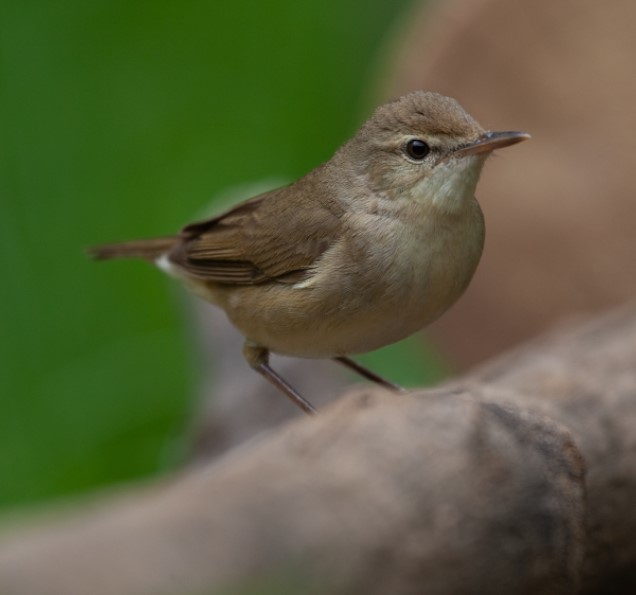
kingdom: Animalia
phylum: Chordata
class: Aves
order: Passeriformes
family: Acrocephalidae
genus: Acrocephalus
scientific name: Acrocephalus dumetorum
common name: Blyth's reed warbler
